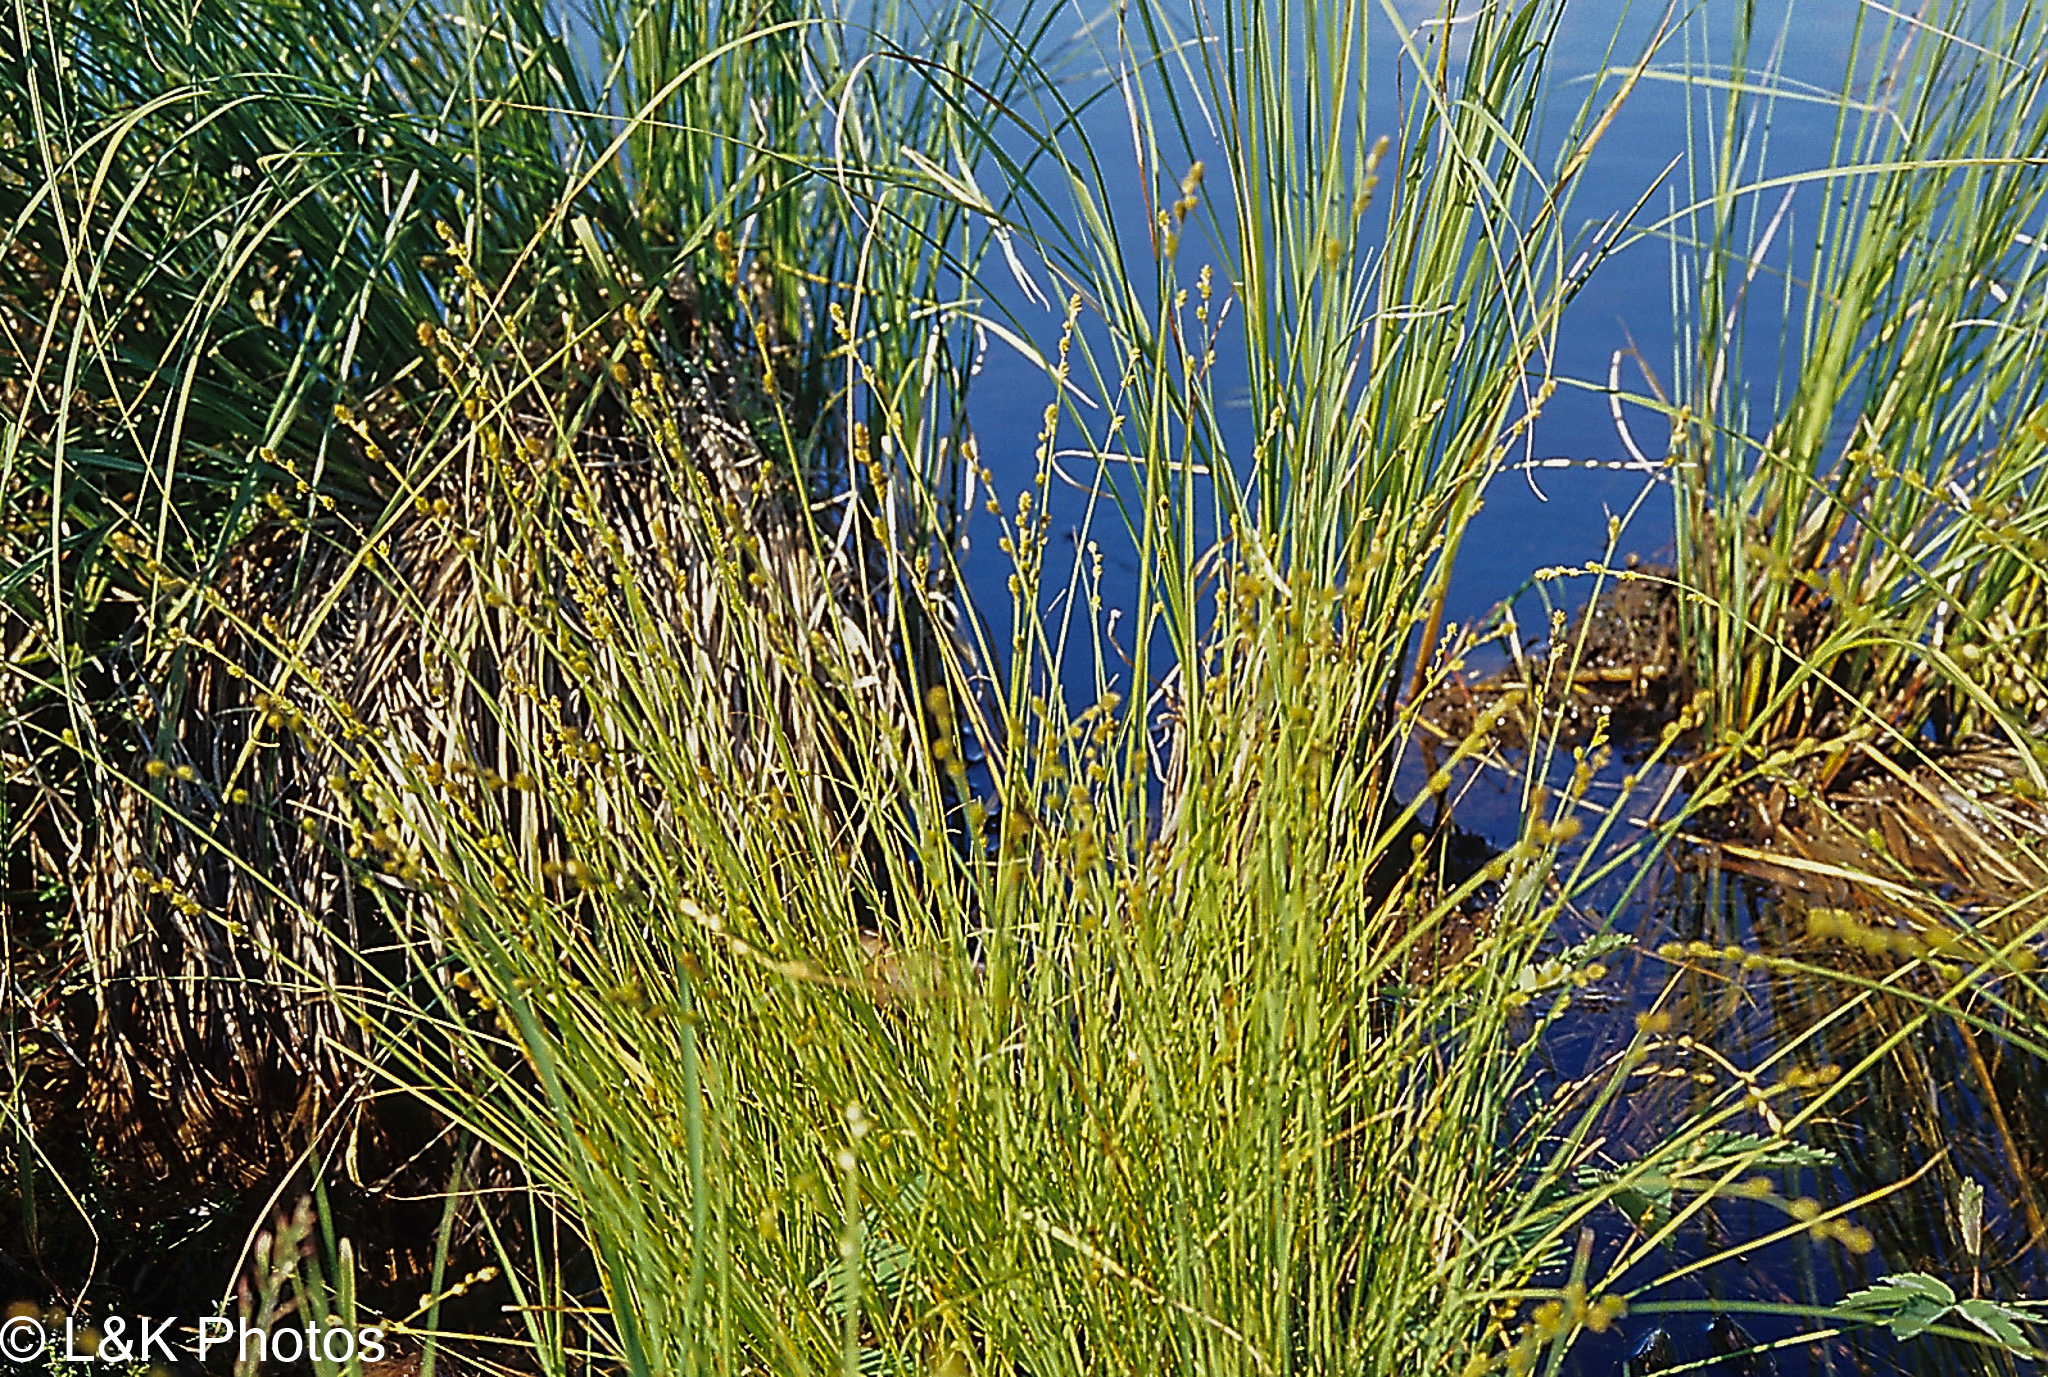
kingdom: Plantae
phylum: Tracheophyta
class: Liliopsida
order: Poales
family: Cyperaceae
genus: Carex
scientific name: Carex canescens
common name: White sedge
